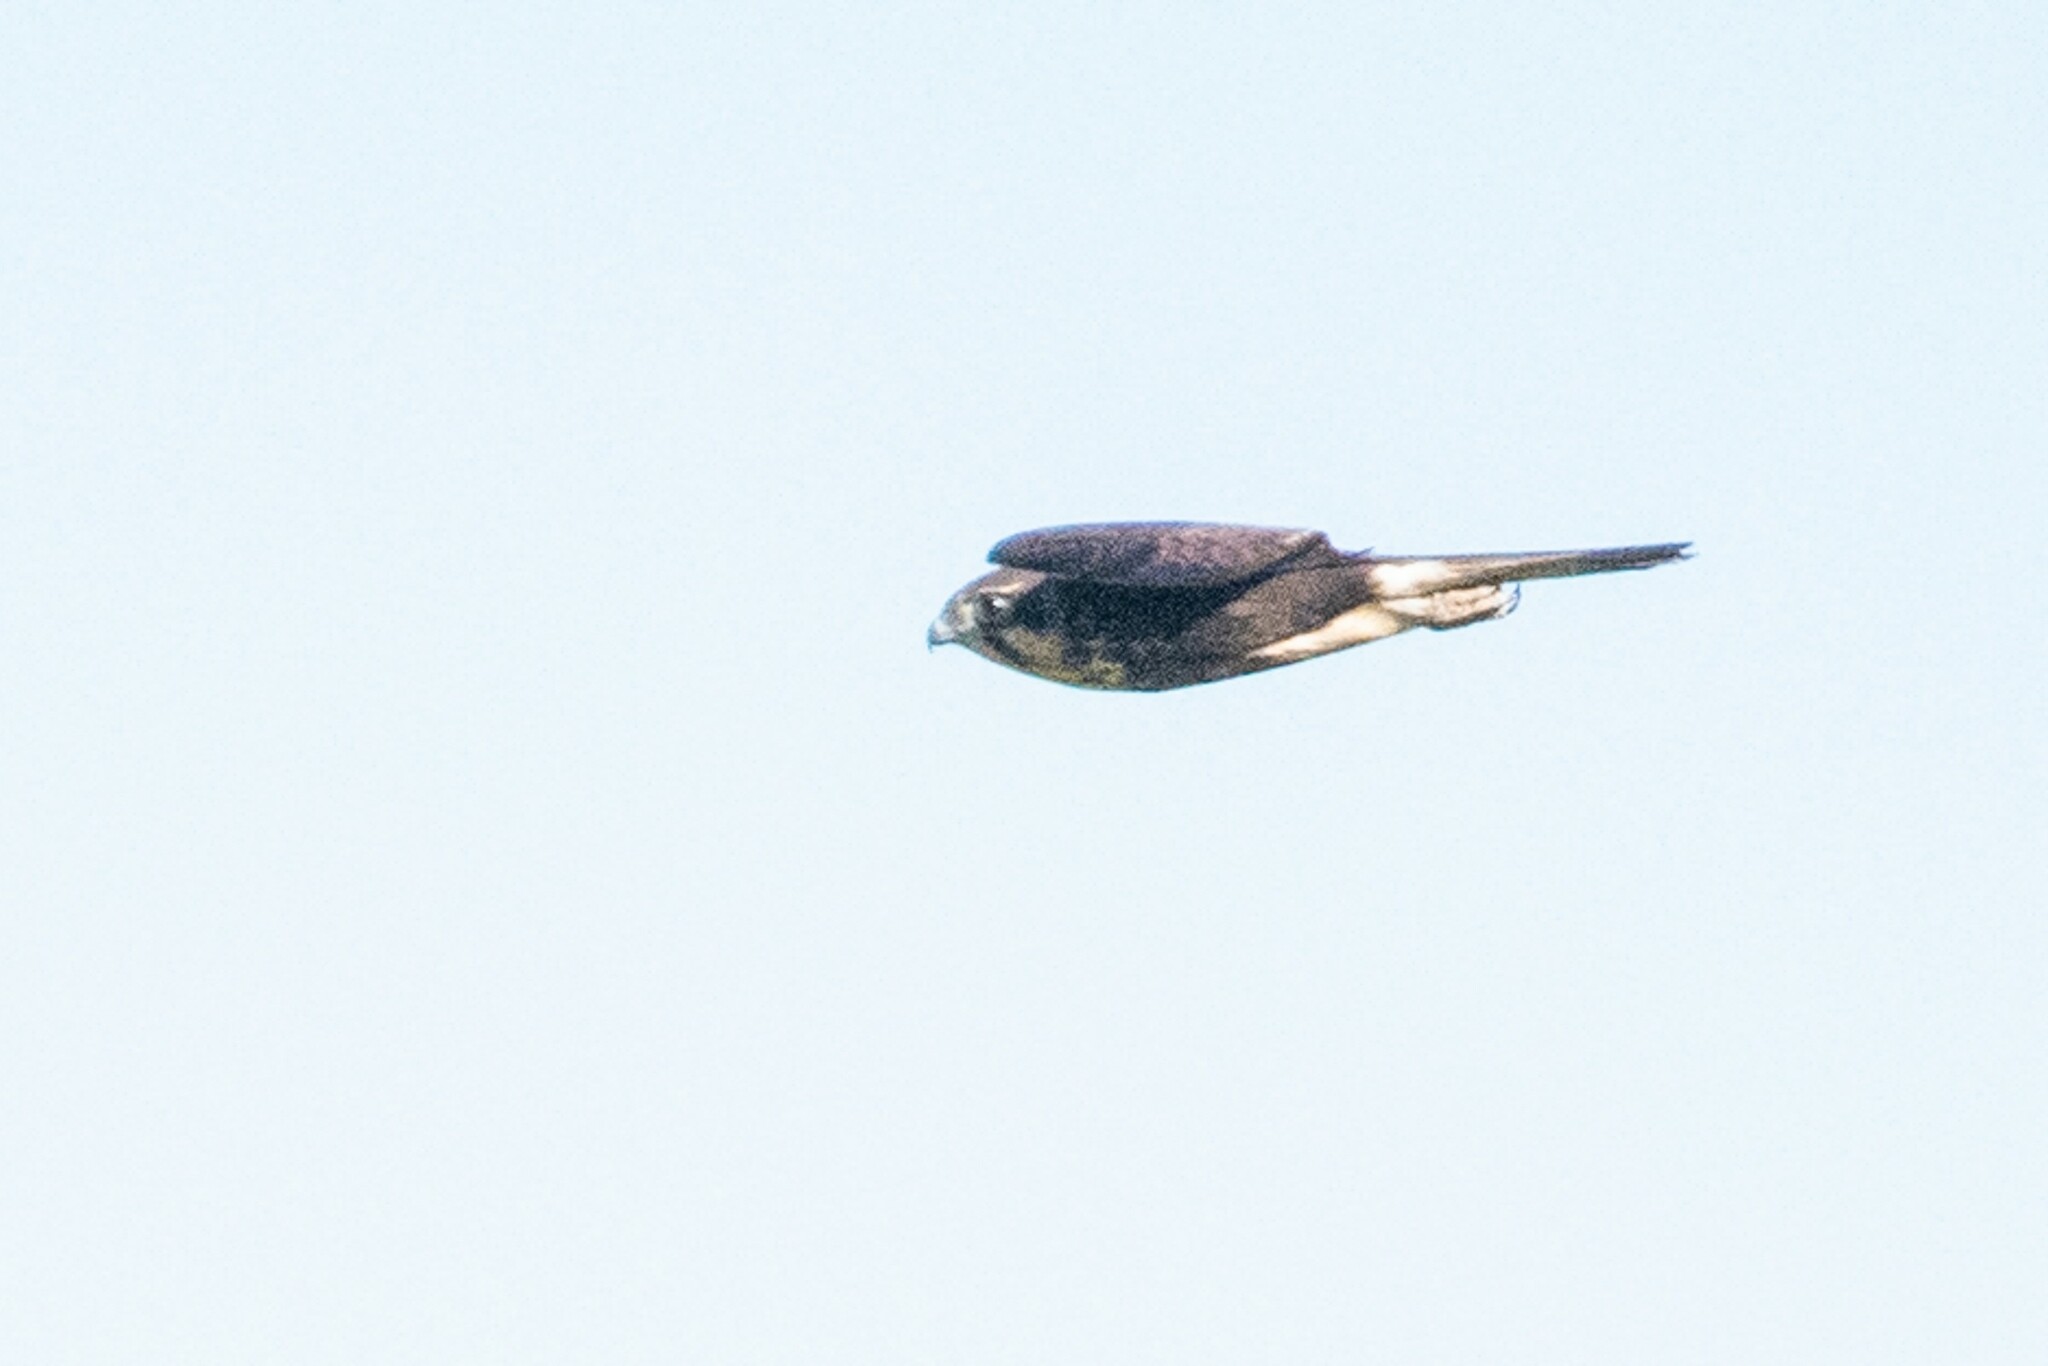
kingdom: Animalia
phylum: Chordata
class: Aves
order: Falconiformes
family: Falconidae
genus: Falco
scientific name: Falco berigora
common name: Brown falcon
